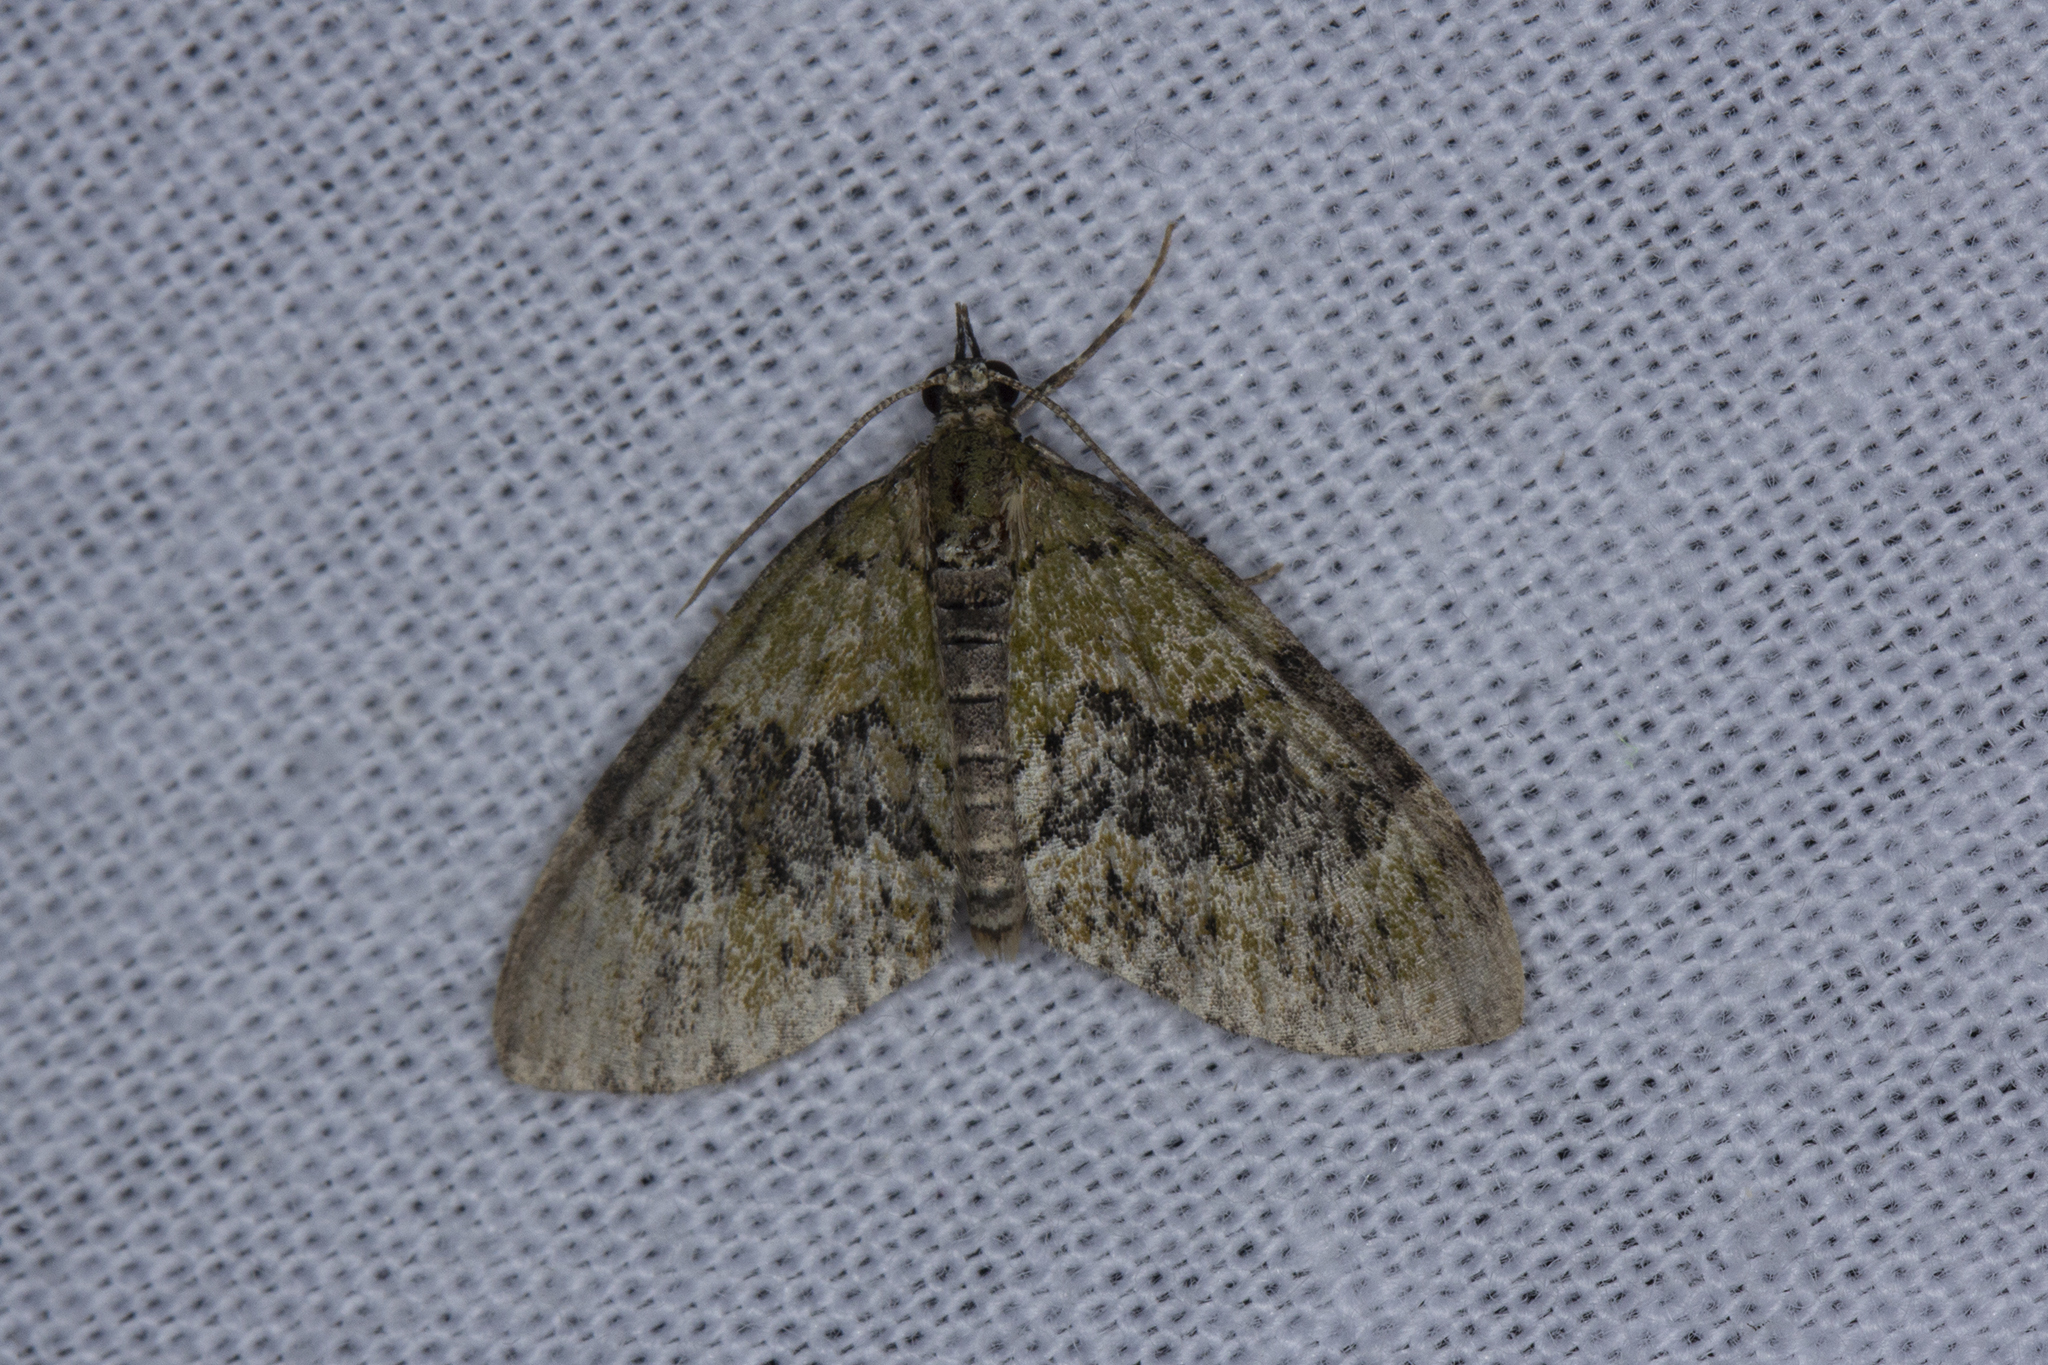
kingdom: Animalia
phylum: Arthropoda
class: Insecta
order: Lepidoptera
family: Geometridae
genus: Acasis
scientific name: Acasis viretata
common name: Yellow-barred brindle
